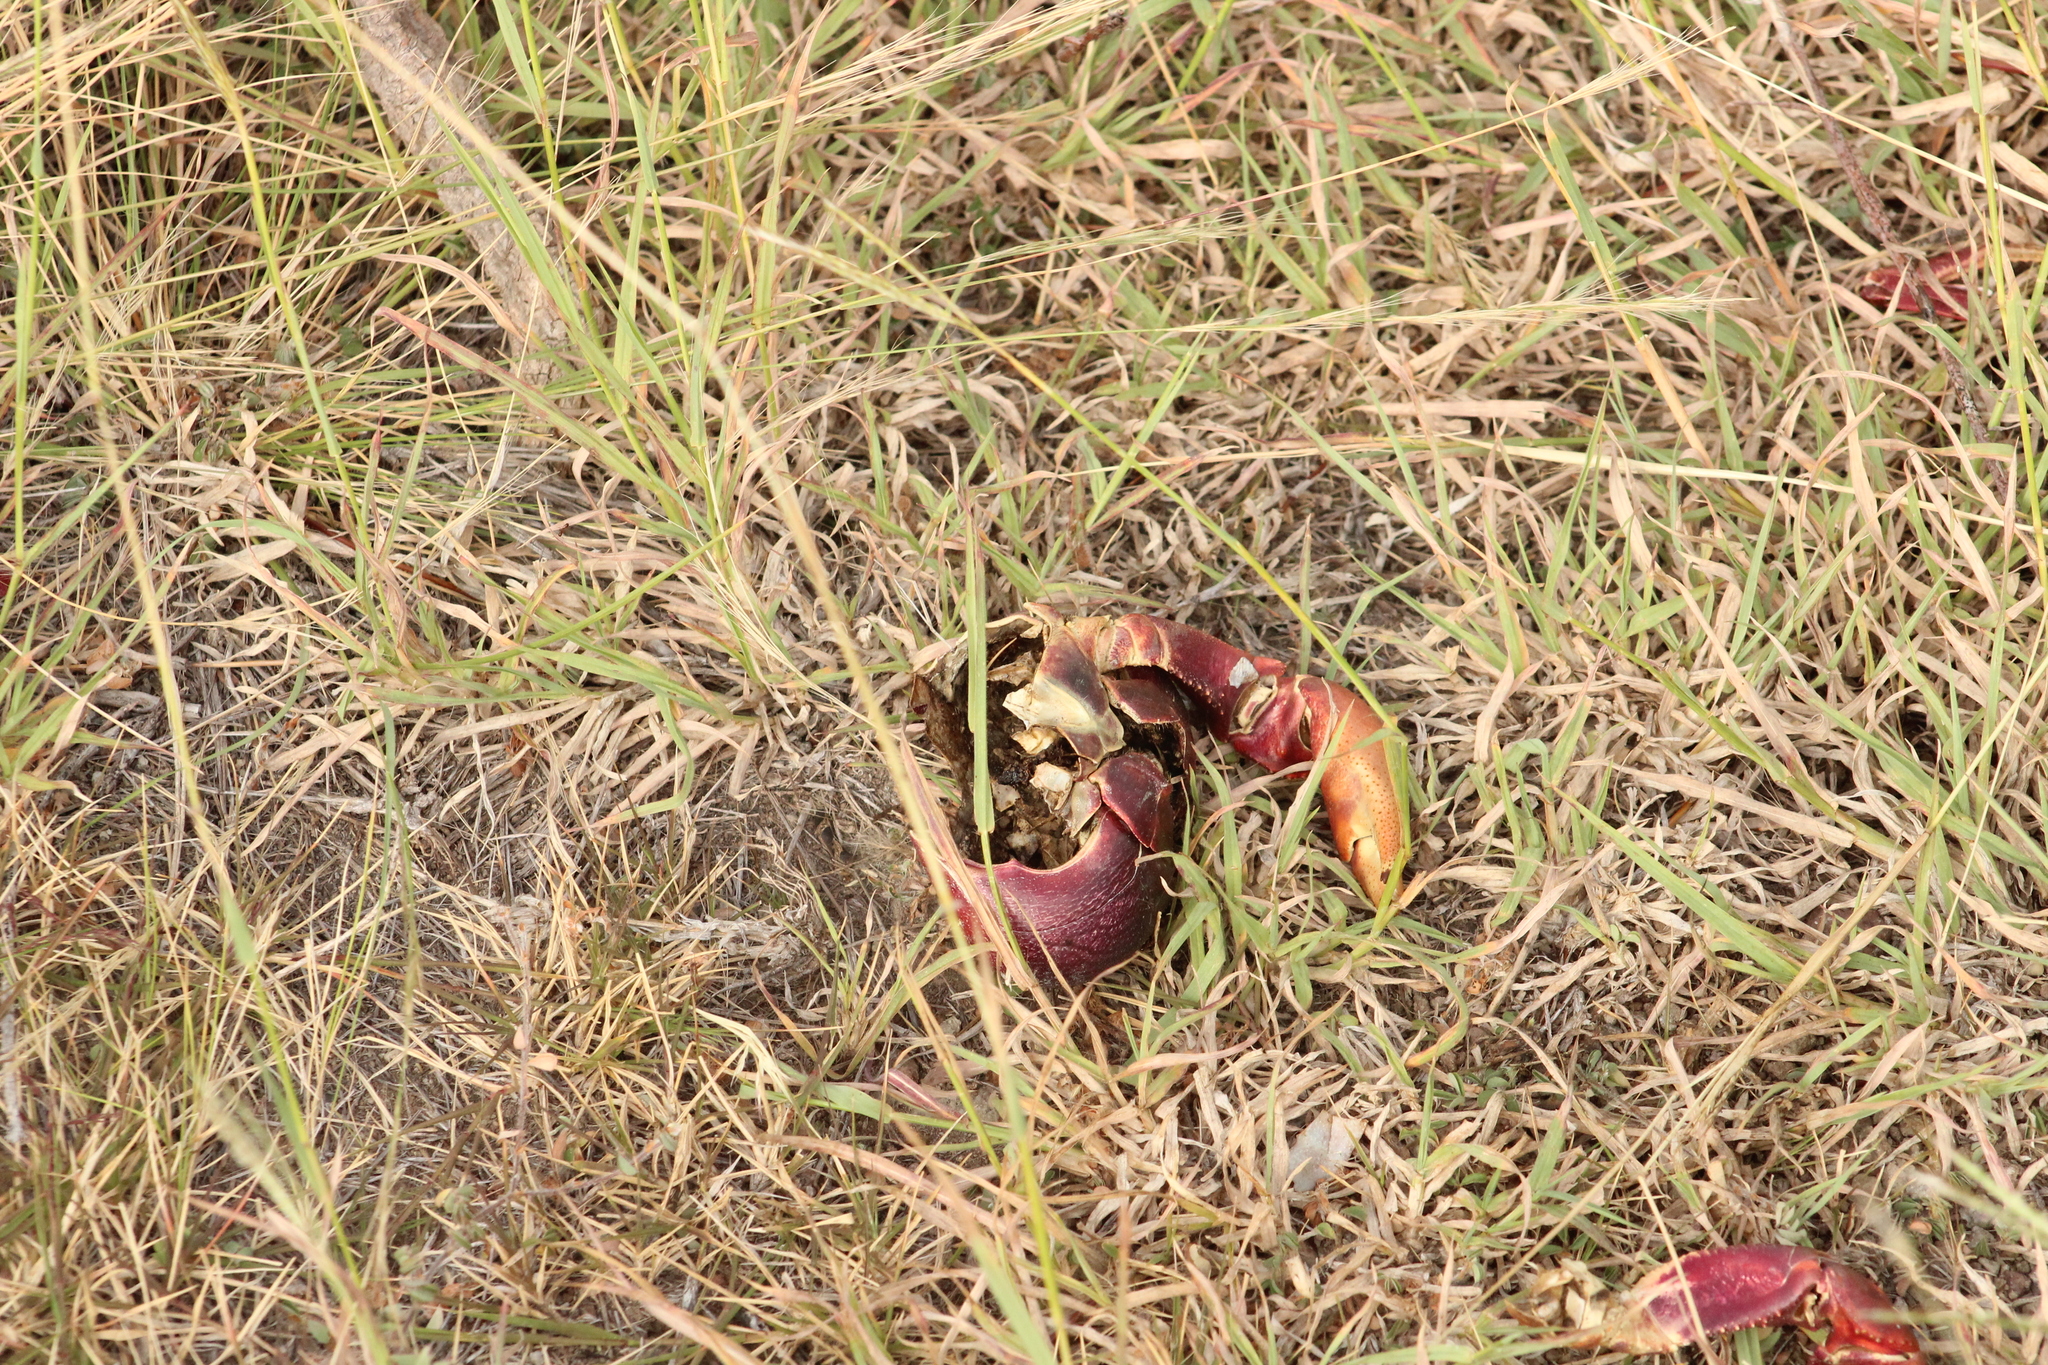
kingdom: Animalia
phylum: Arthropoda
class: Malacostraca
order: Decapoda
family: Gecarcinidae
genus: Gecarcinus
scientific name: Gecarcinus ruricola
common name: Black land crab
